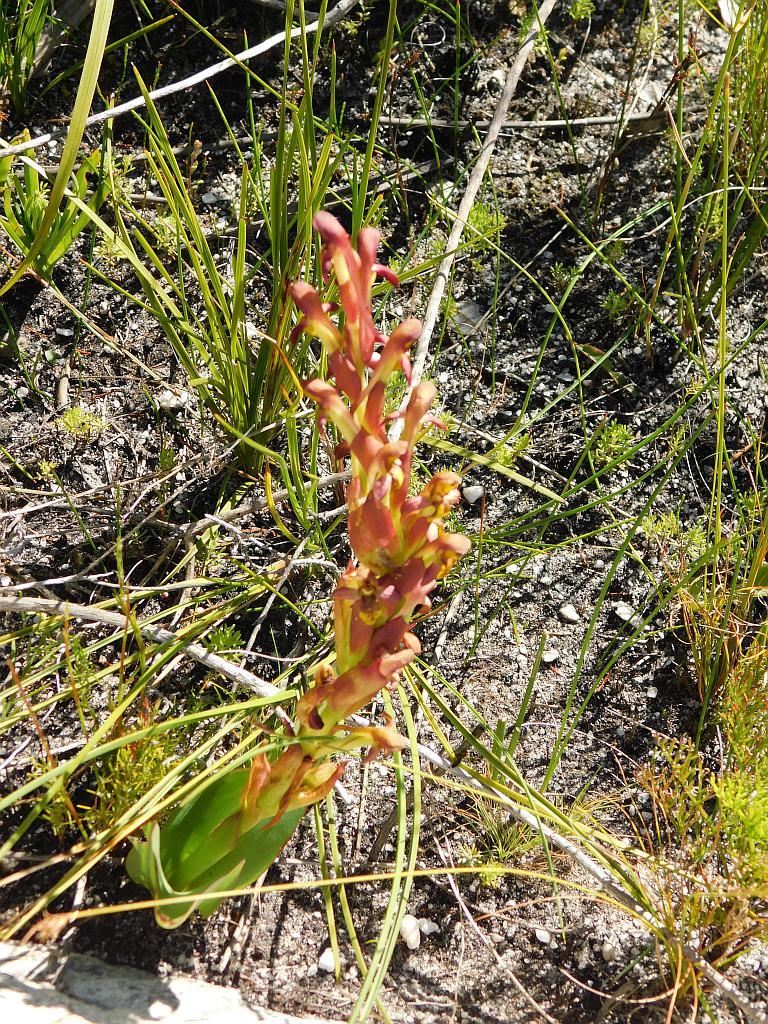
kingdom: Plantae
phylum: Tracheophyta
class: Liliopsida
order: Asparagales
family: Orchidaceae
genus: Disa
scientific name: Disa comosa
